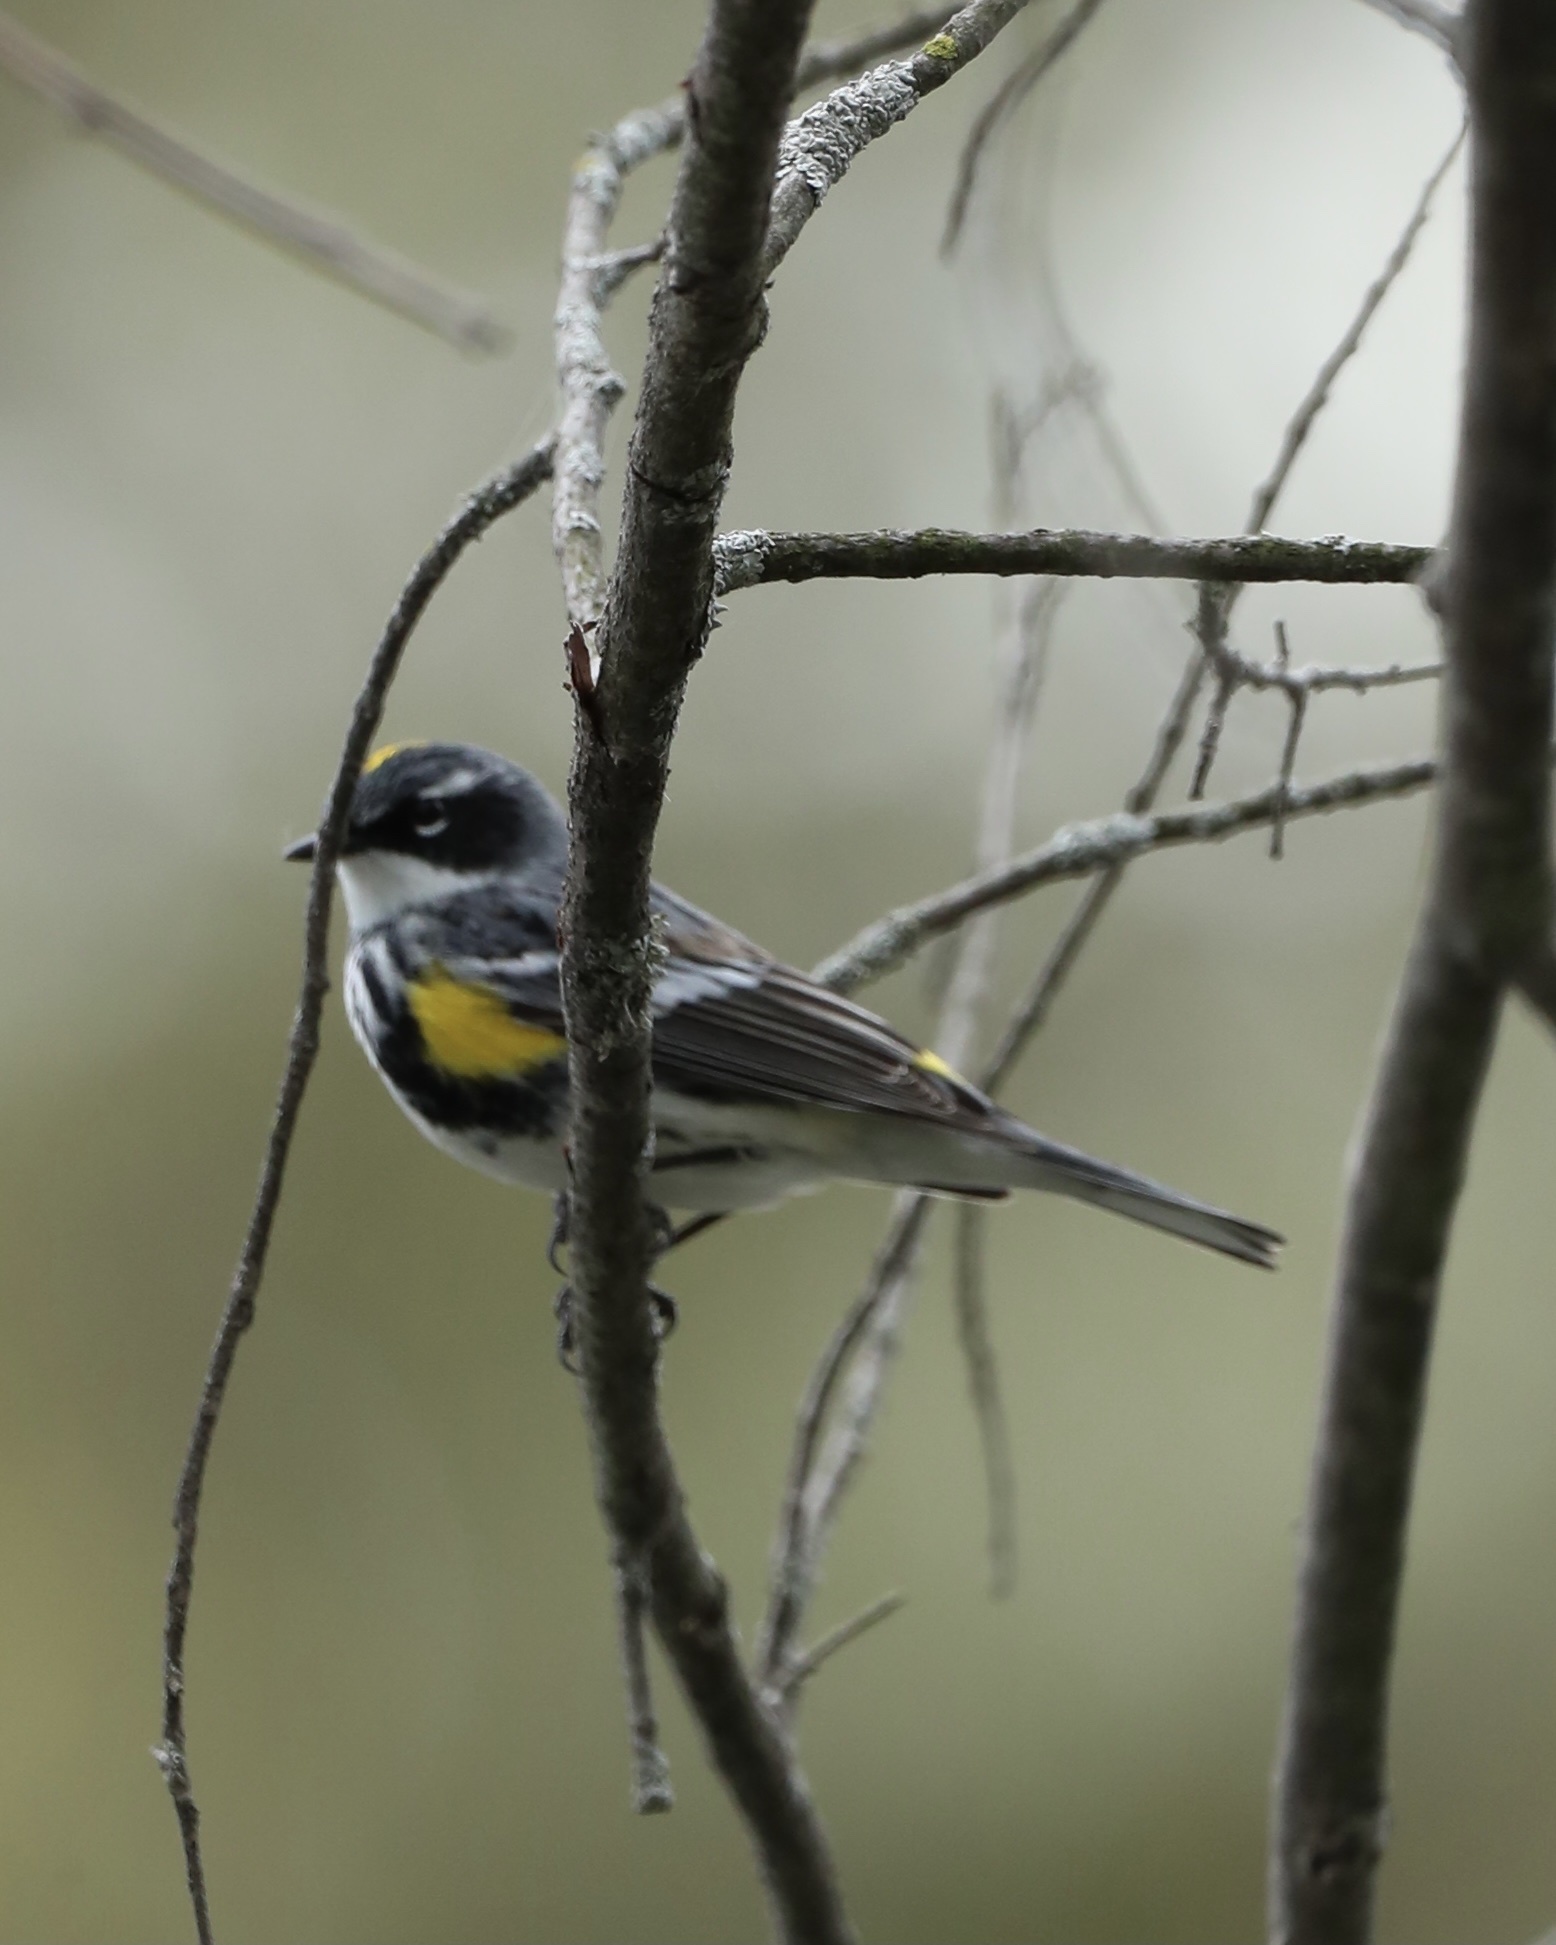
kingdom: Animalia
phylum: Chordata
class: Aves
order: Passeriformes
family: Parulidae
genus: Setophaga
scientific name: Setophaga coronata
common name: Myrtle warbler
